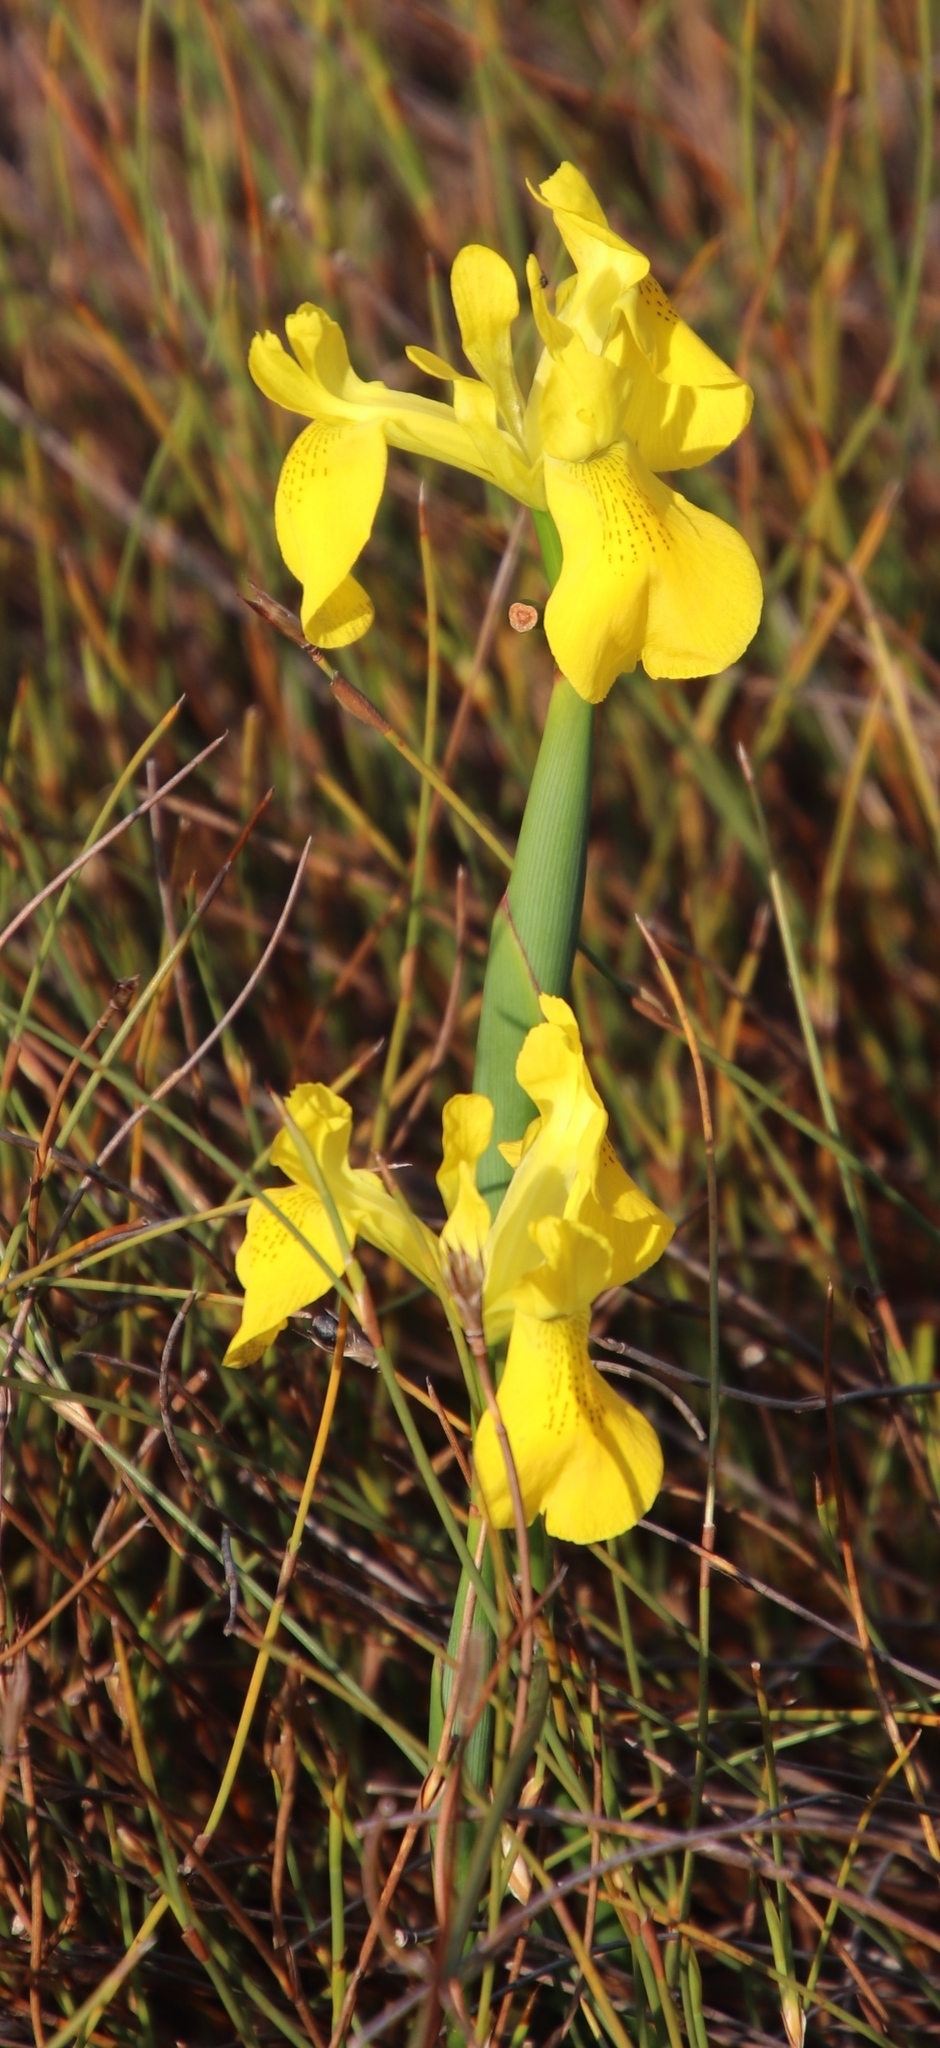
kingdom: Plantae
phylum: Tracheophyta
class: Liliopsida
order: Asparagales
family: Iridaceae
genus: Moraea
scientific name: Moraea neglecta
